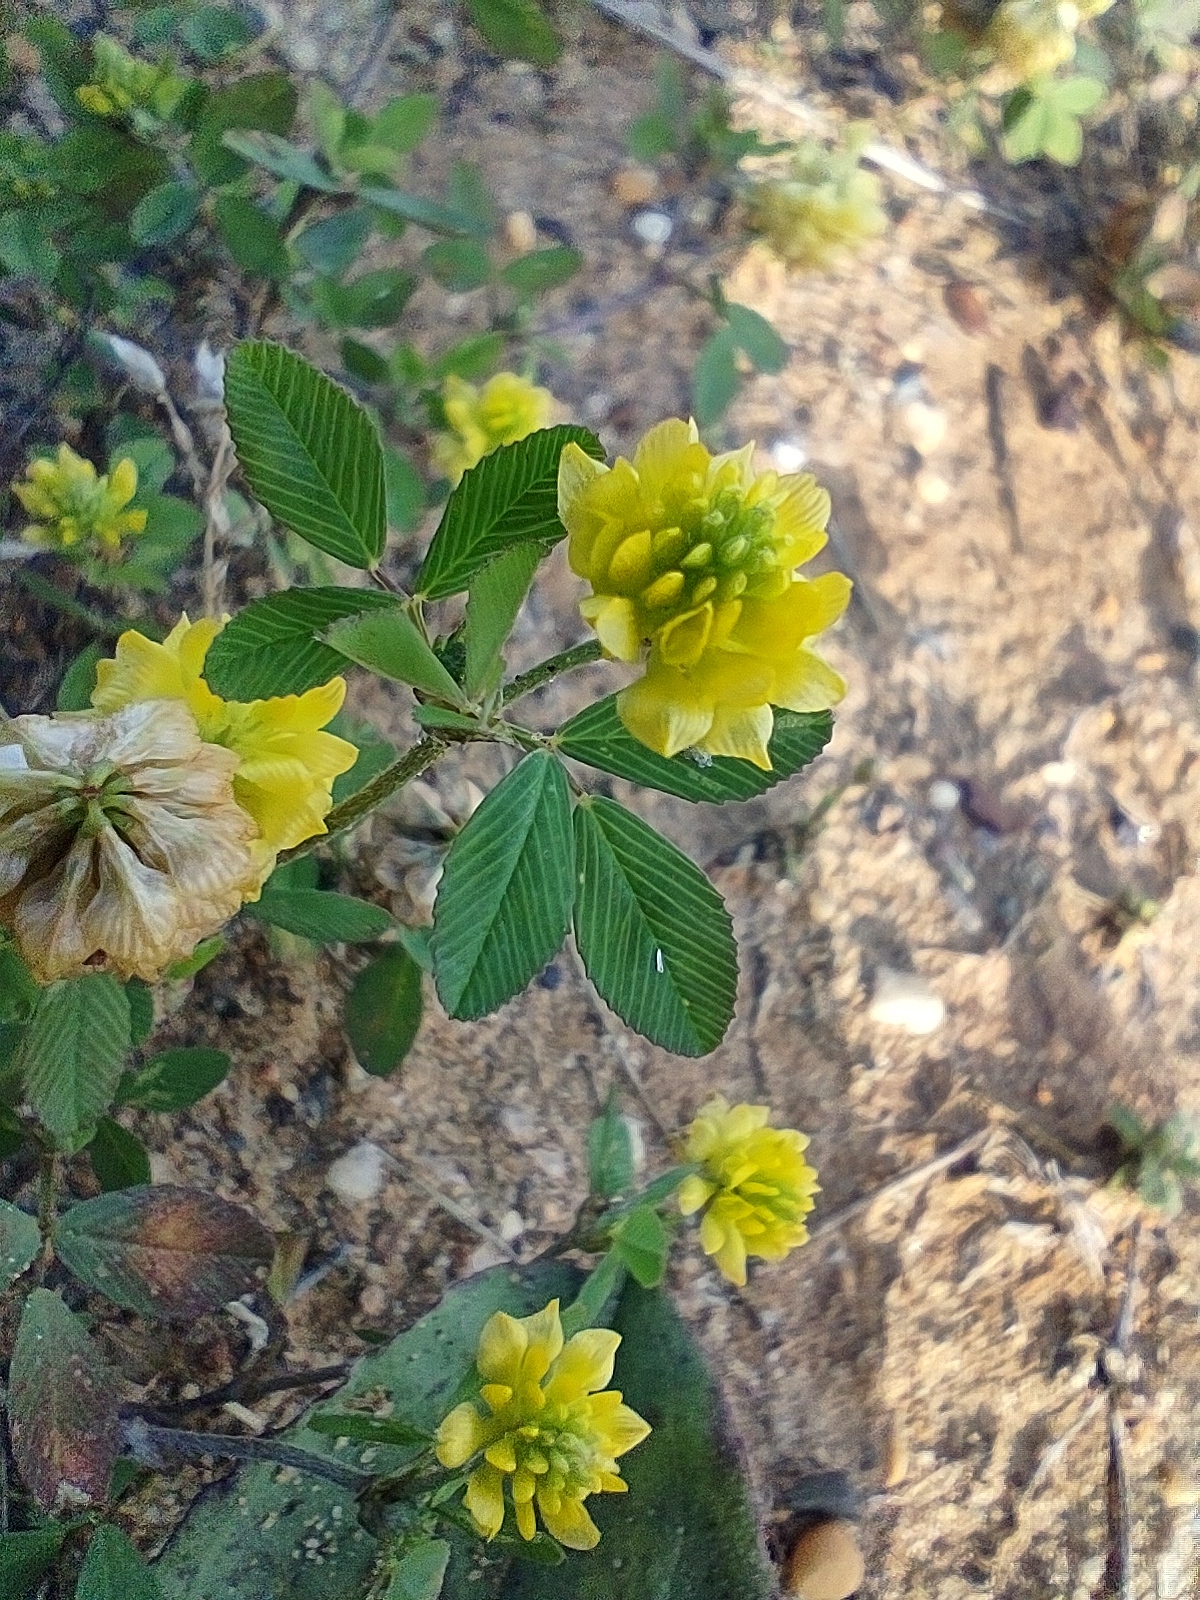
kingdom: Plantae
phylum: Tracheophyta
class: Magnoliopsida
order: Fabales
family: Fabaceae
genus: Trifolium
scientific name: Trifolium campestre
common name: Field clover
